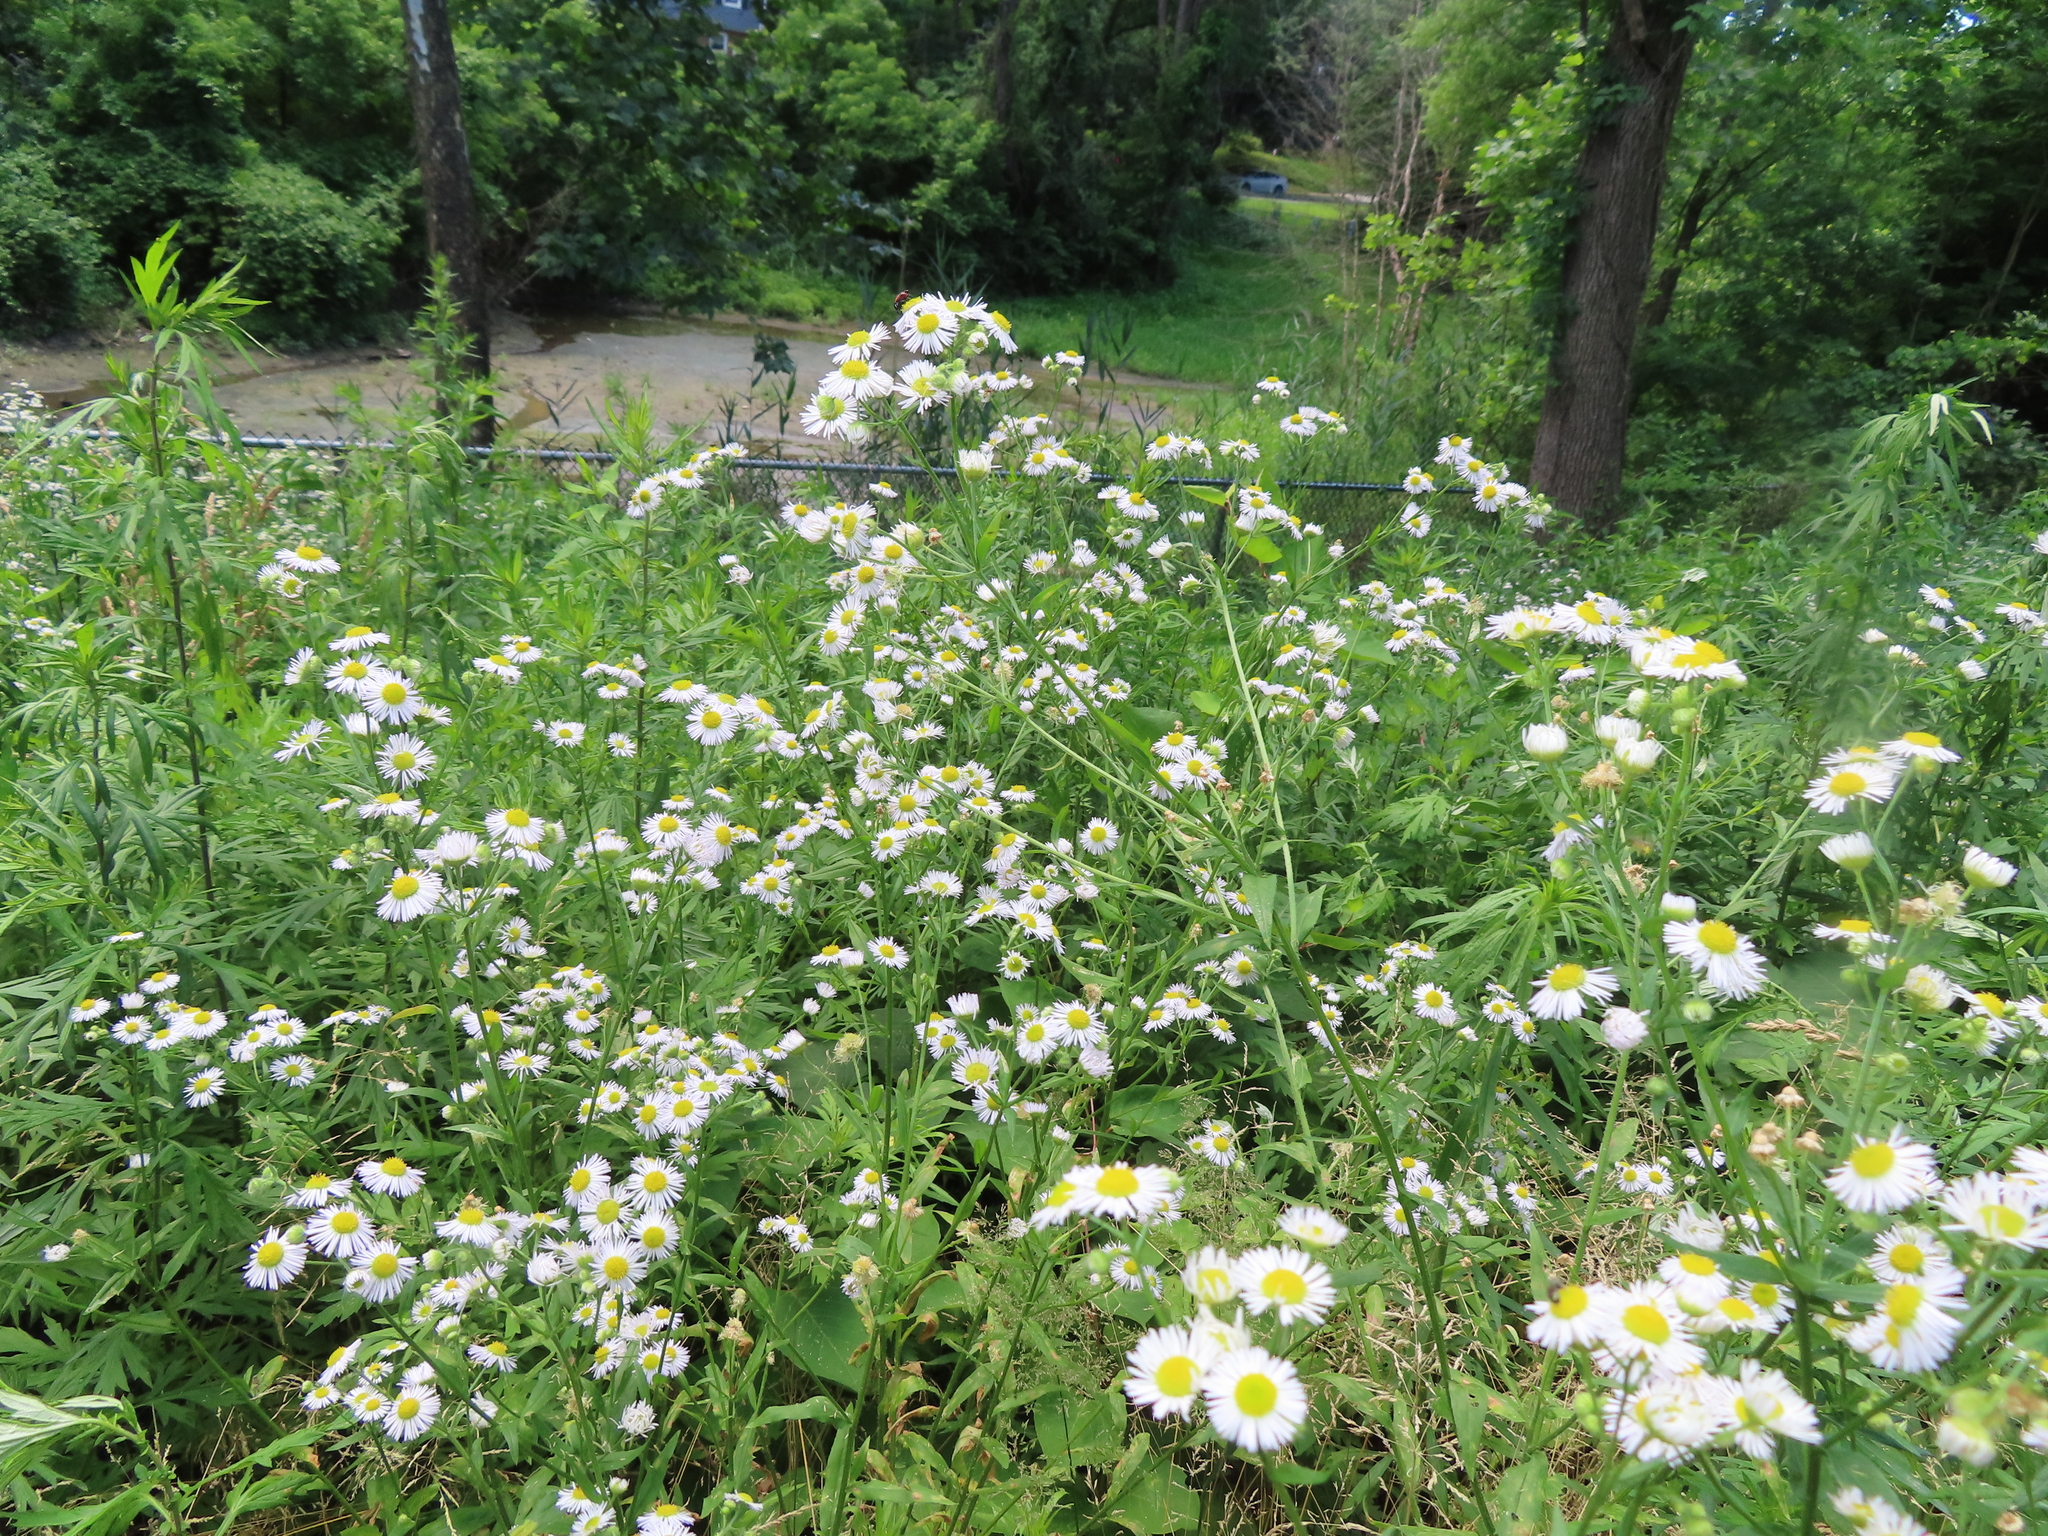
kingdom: Plantae
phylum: Tracheophyta
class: Magnoliopsida
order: Asterales
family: Asteraceae
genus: Erigeron
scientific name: Erigeron annuus
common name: Tall fleabane
